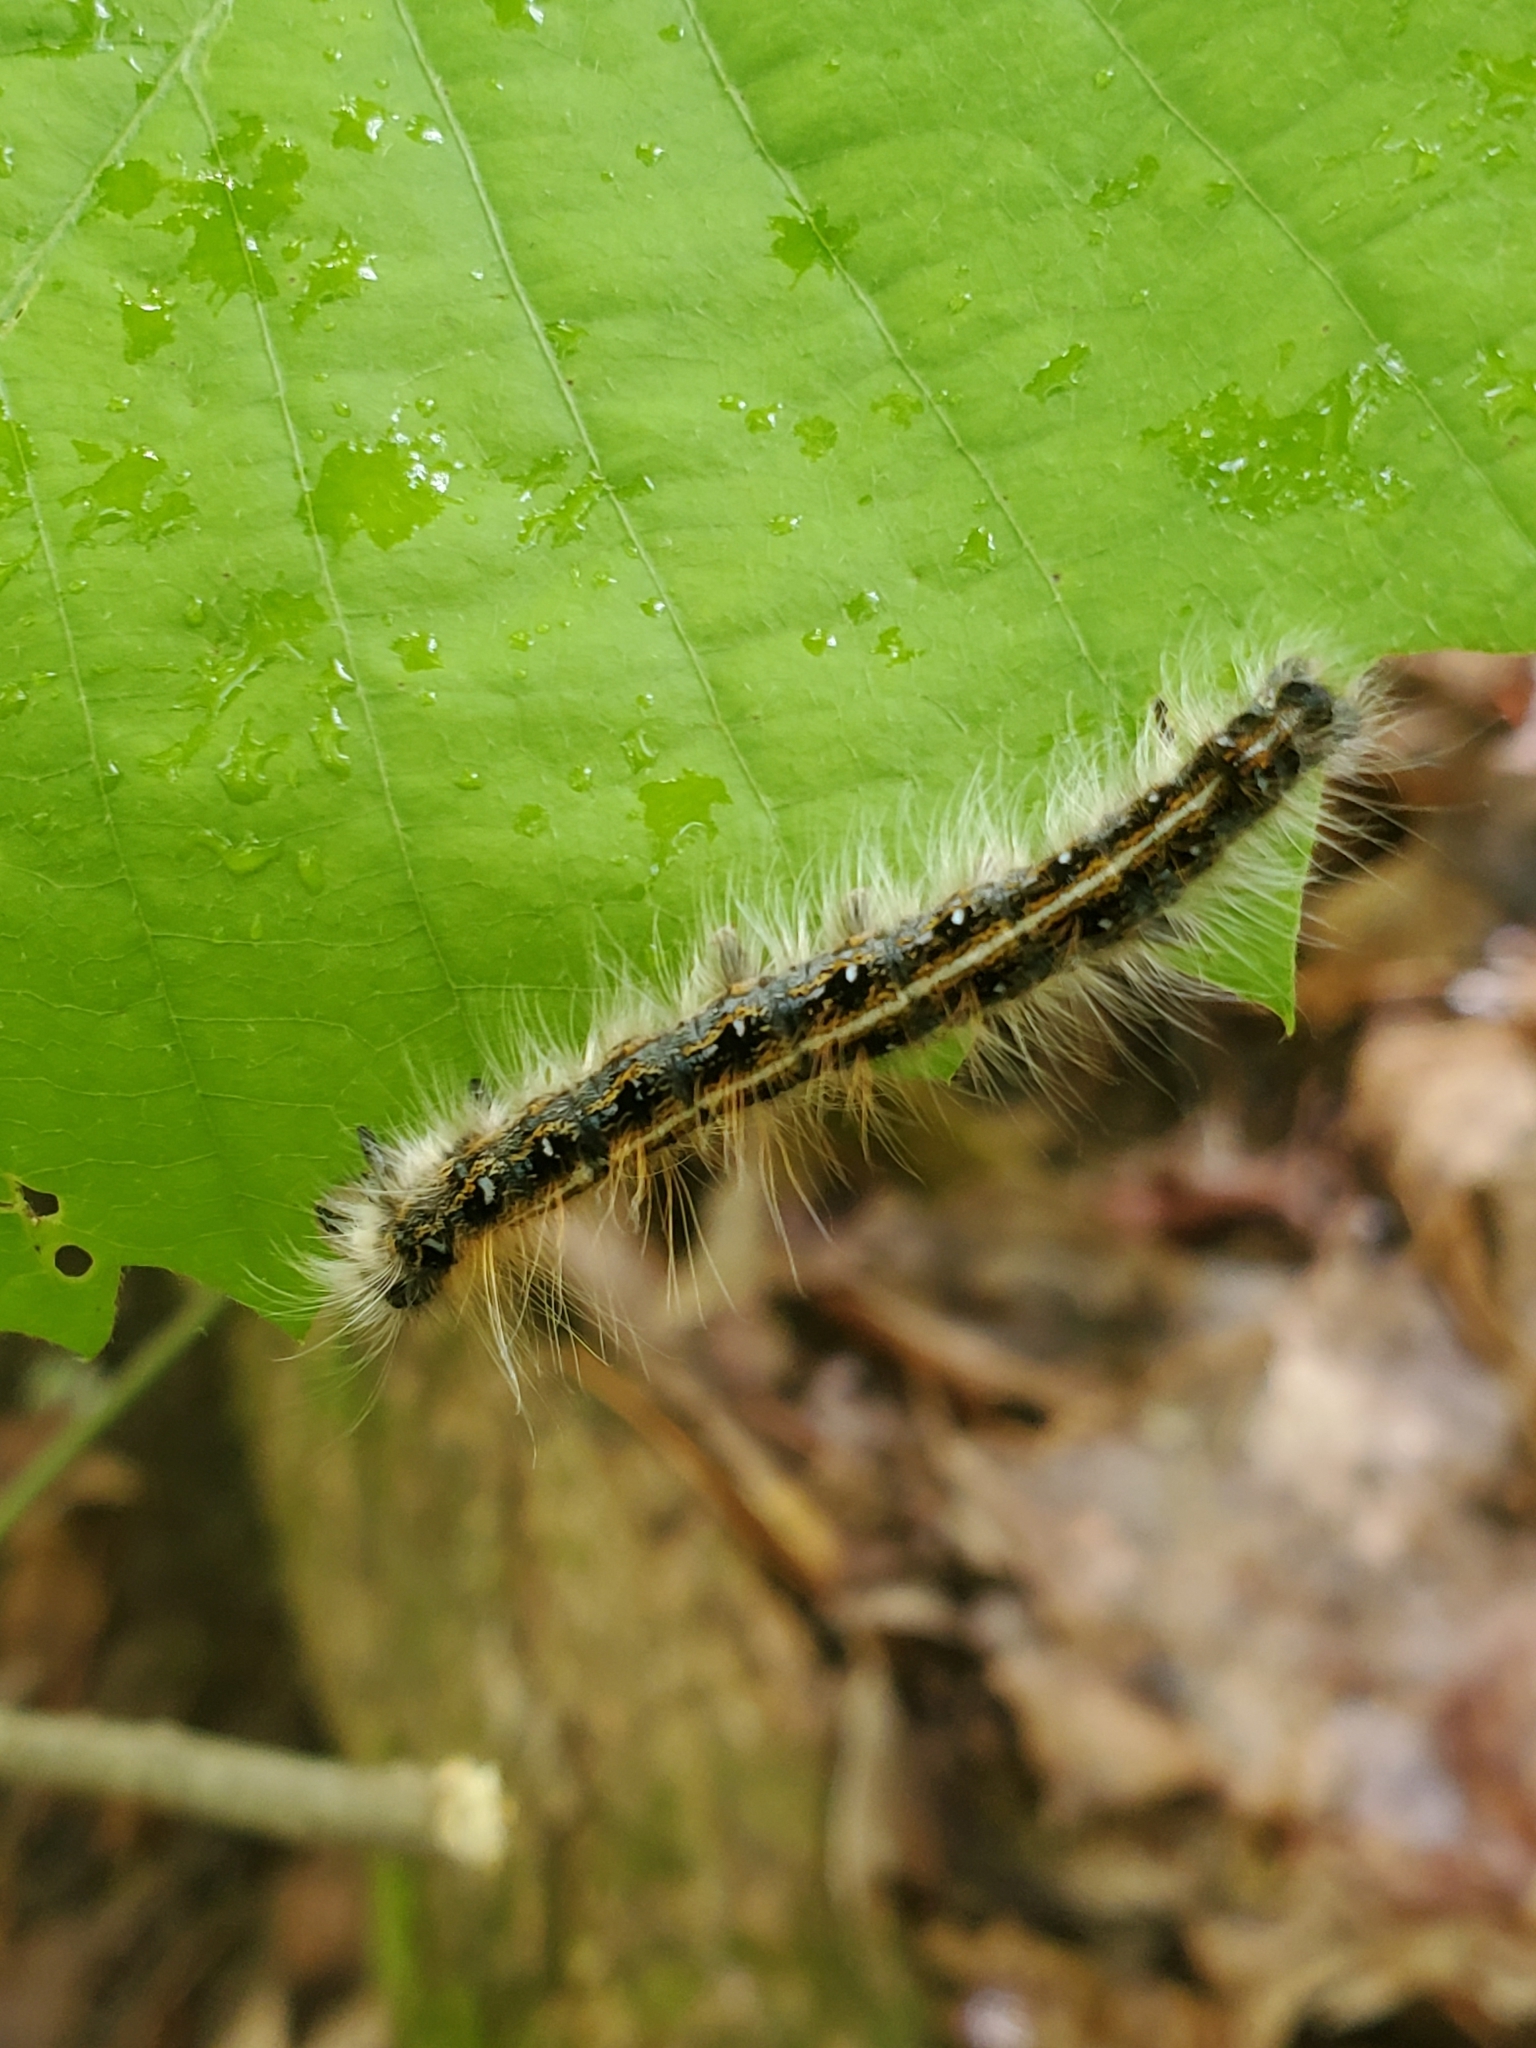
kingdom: Animalia
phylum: Arthropoda
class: Insecta
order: Lepidoptera
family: Lasiocampidae
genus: Malacosoma
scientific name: Malacosoma americana
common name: Eastern tent caterpillar moth
